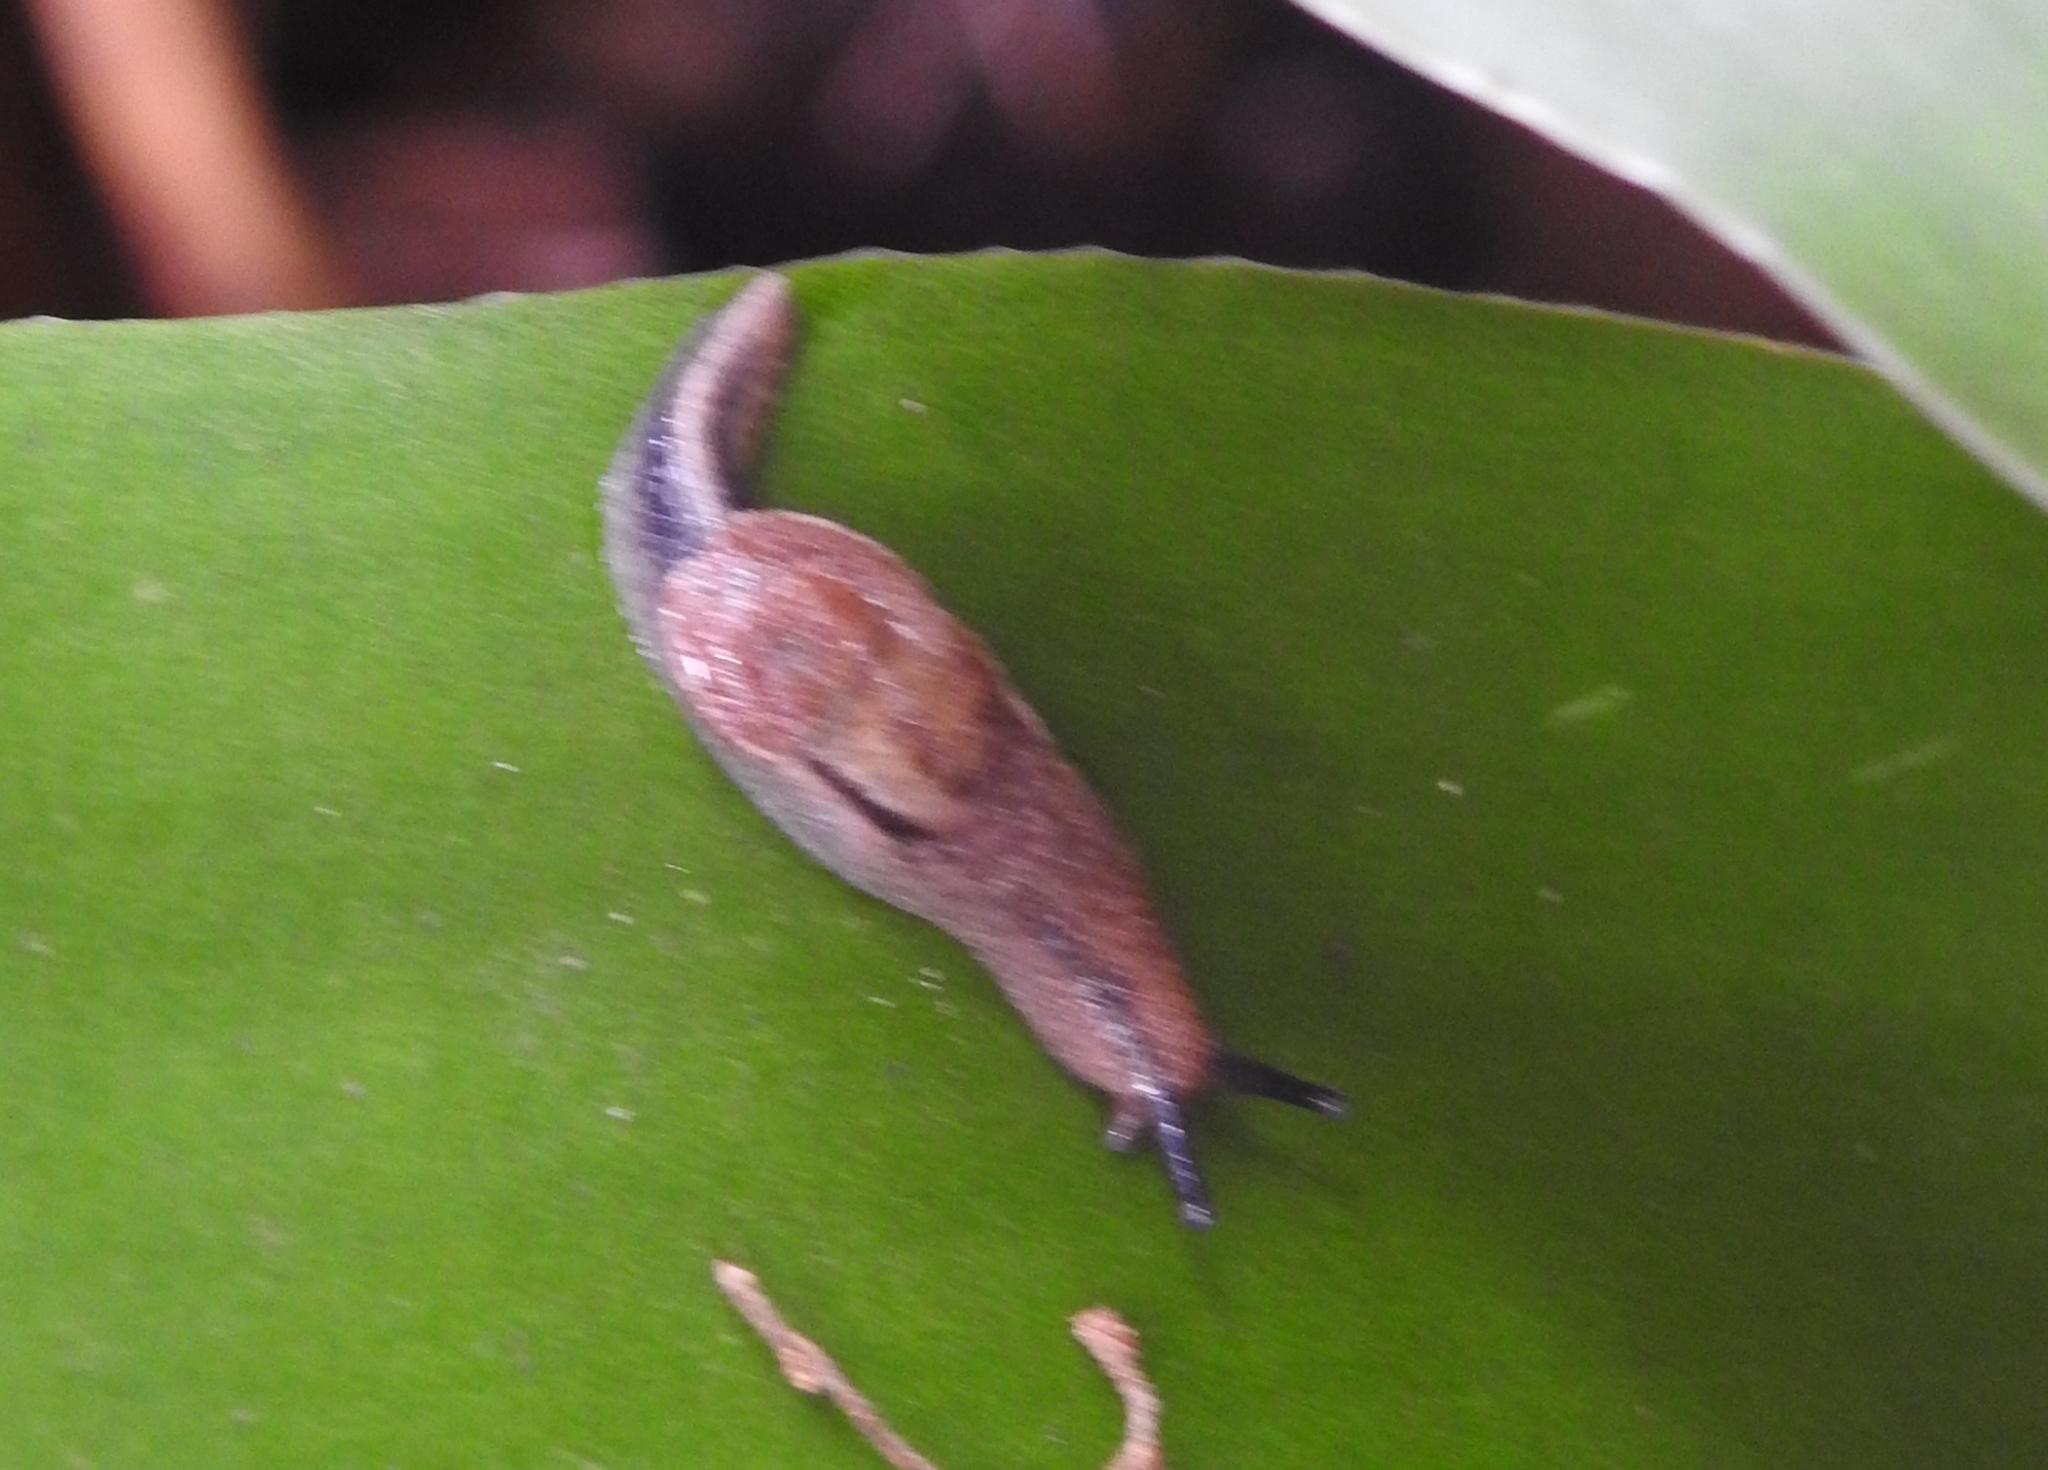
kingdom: Animalia
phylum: Mollusca
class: Gastropoda
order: Stylommatophora
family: Ariophantidae
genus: Parmarion
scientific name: Parmarion martensi
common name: Semi-slug
